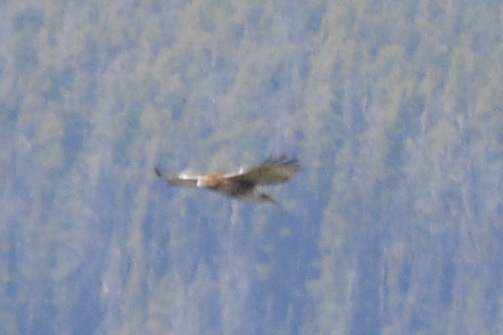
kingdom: Animalia
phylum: Chordata
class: Aves
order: Accipitriformes
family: Accipitridae
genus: Buteo
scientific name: Buteo jamaicensis
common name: Red-tailed hawk
